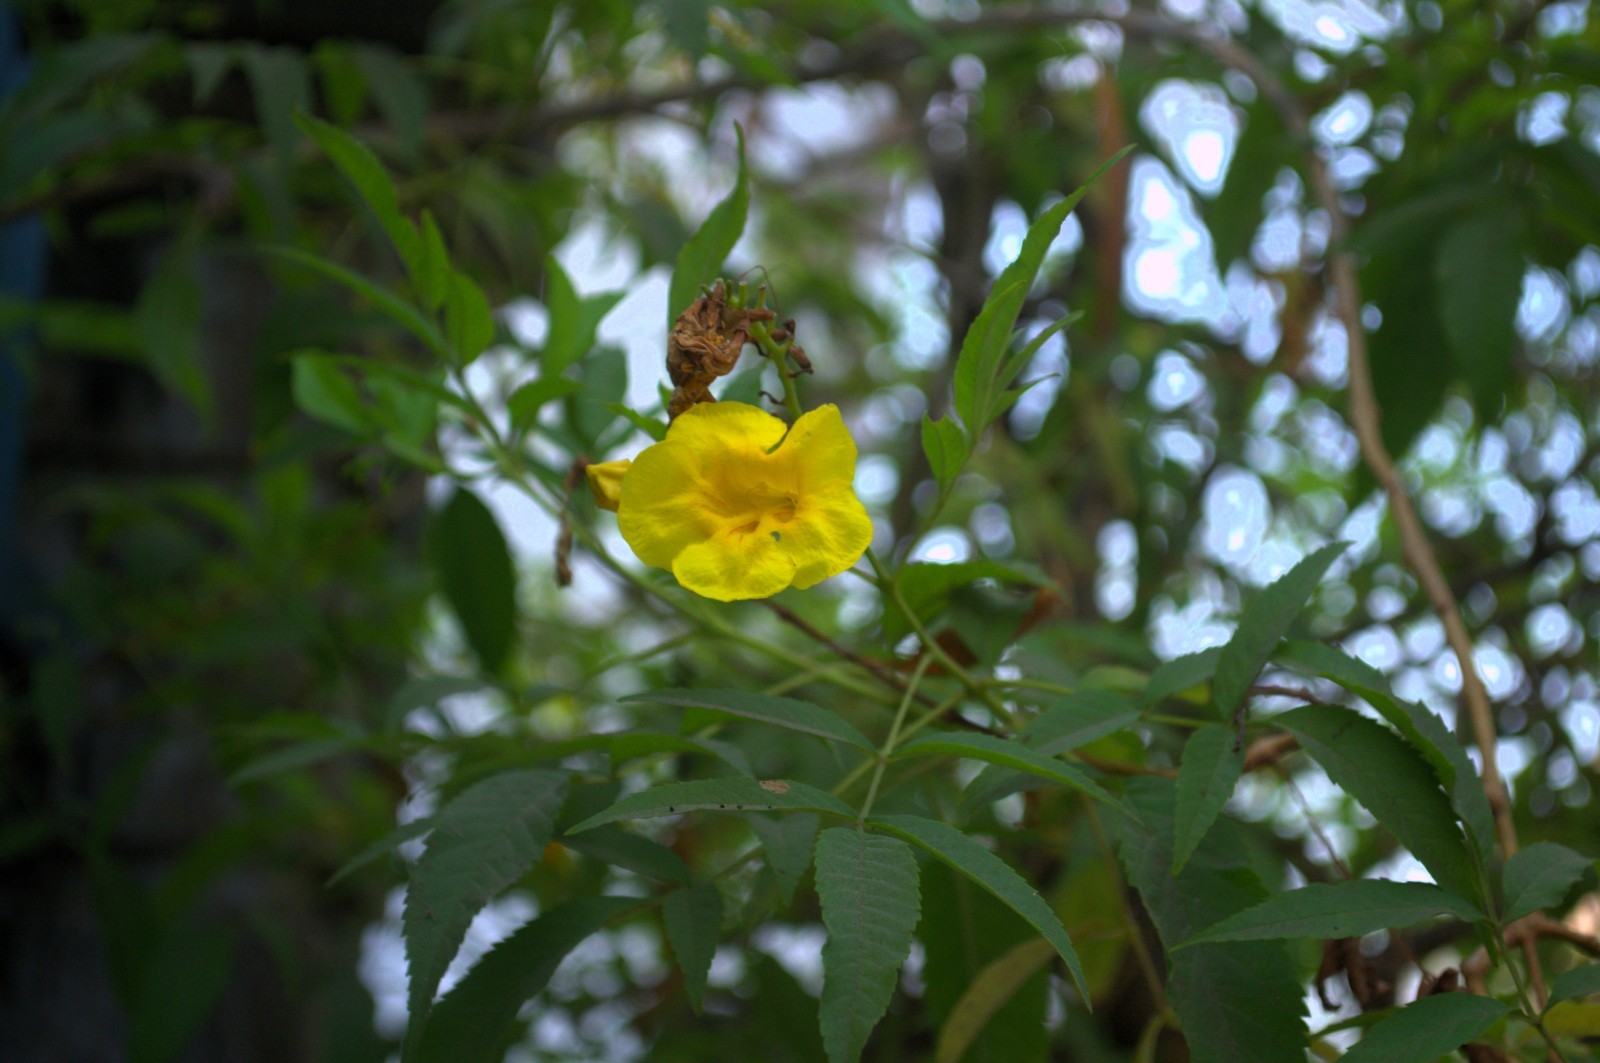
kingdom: Plantae
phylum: Tracheophyta
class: Magnoliopsida
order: Lamiales
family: Bignoniaceae
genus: Tecoma
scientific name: Tecoma stans
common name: Yellow trumpetbush
